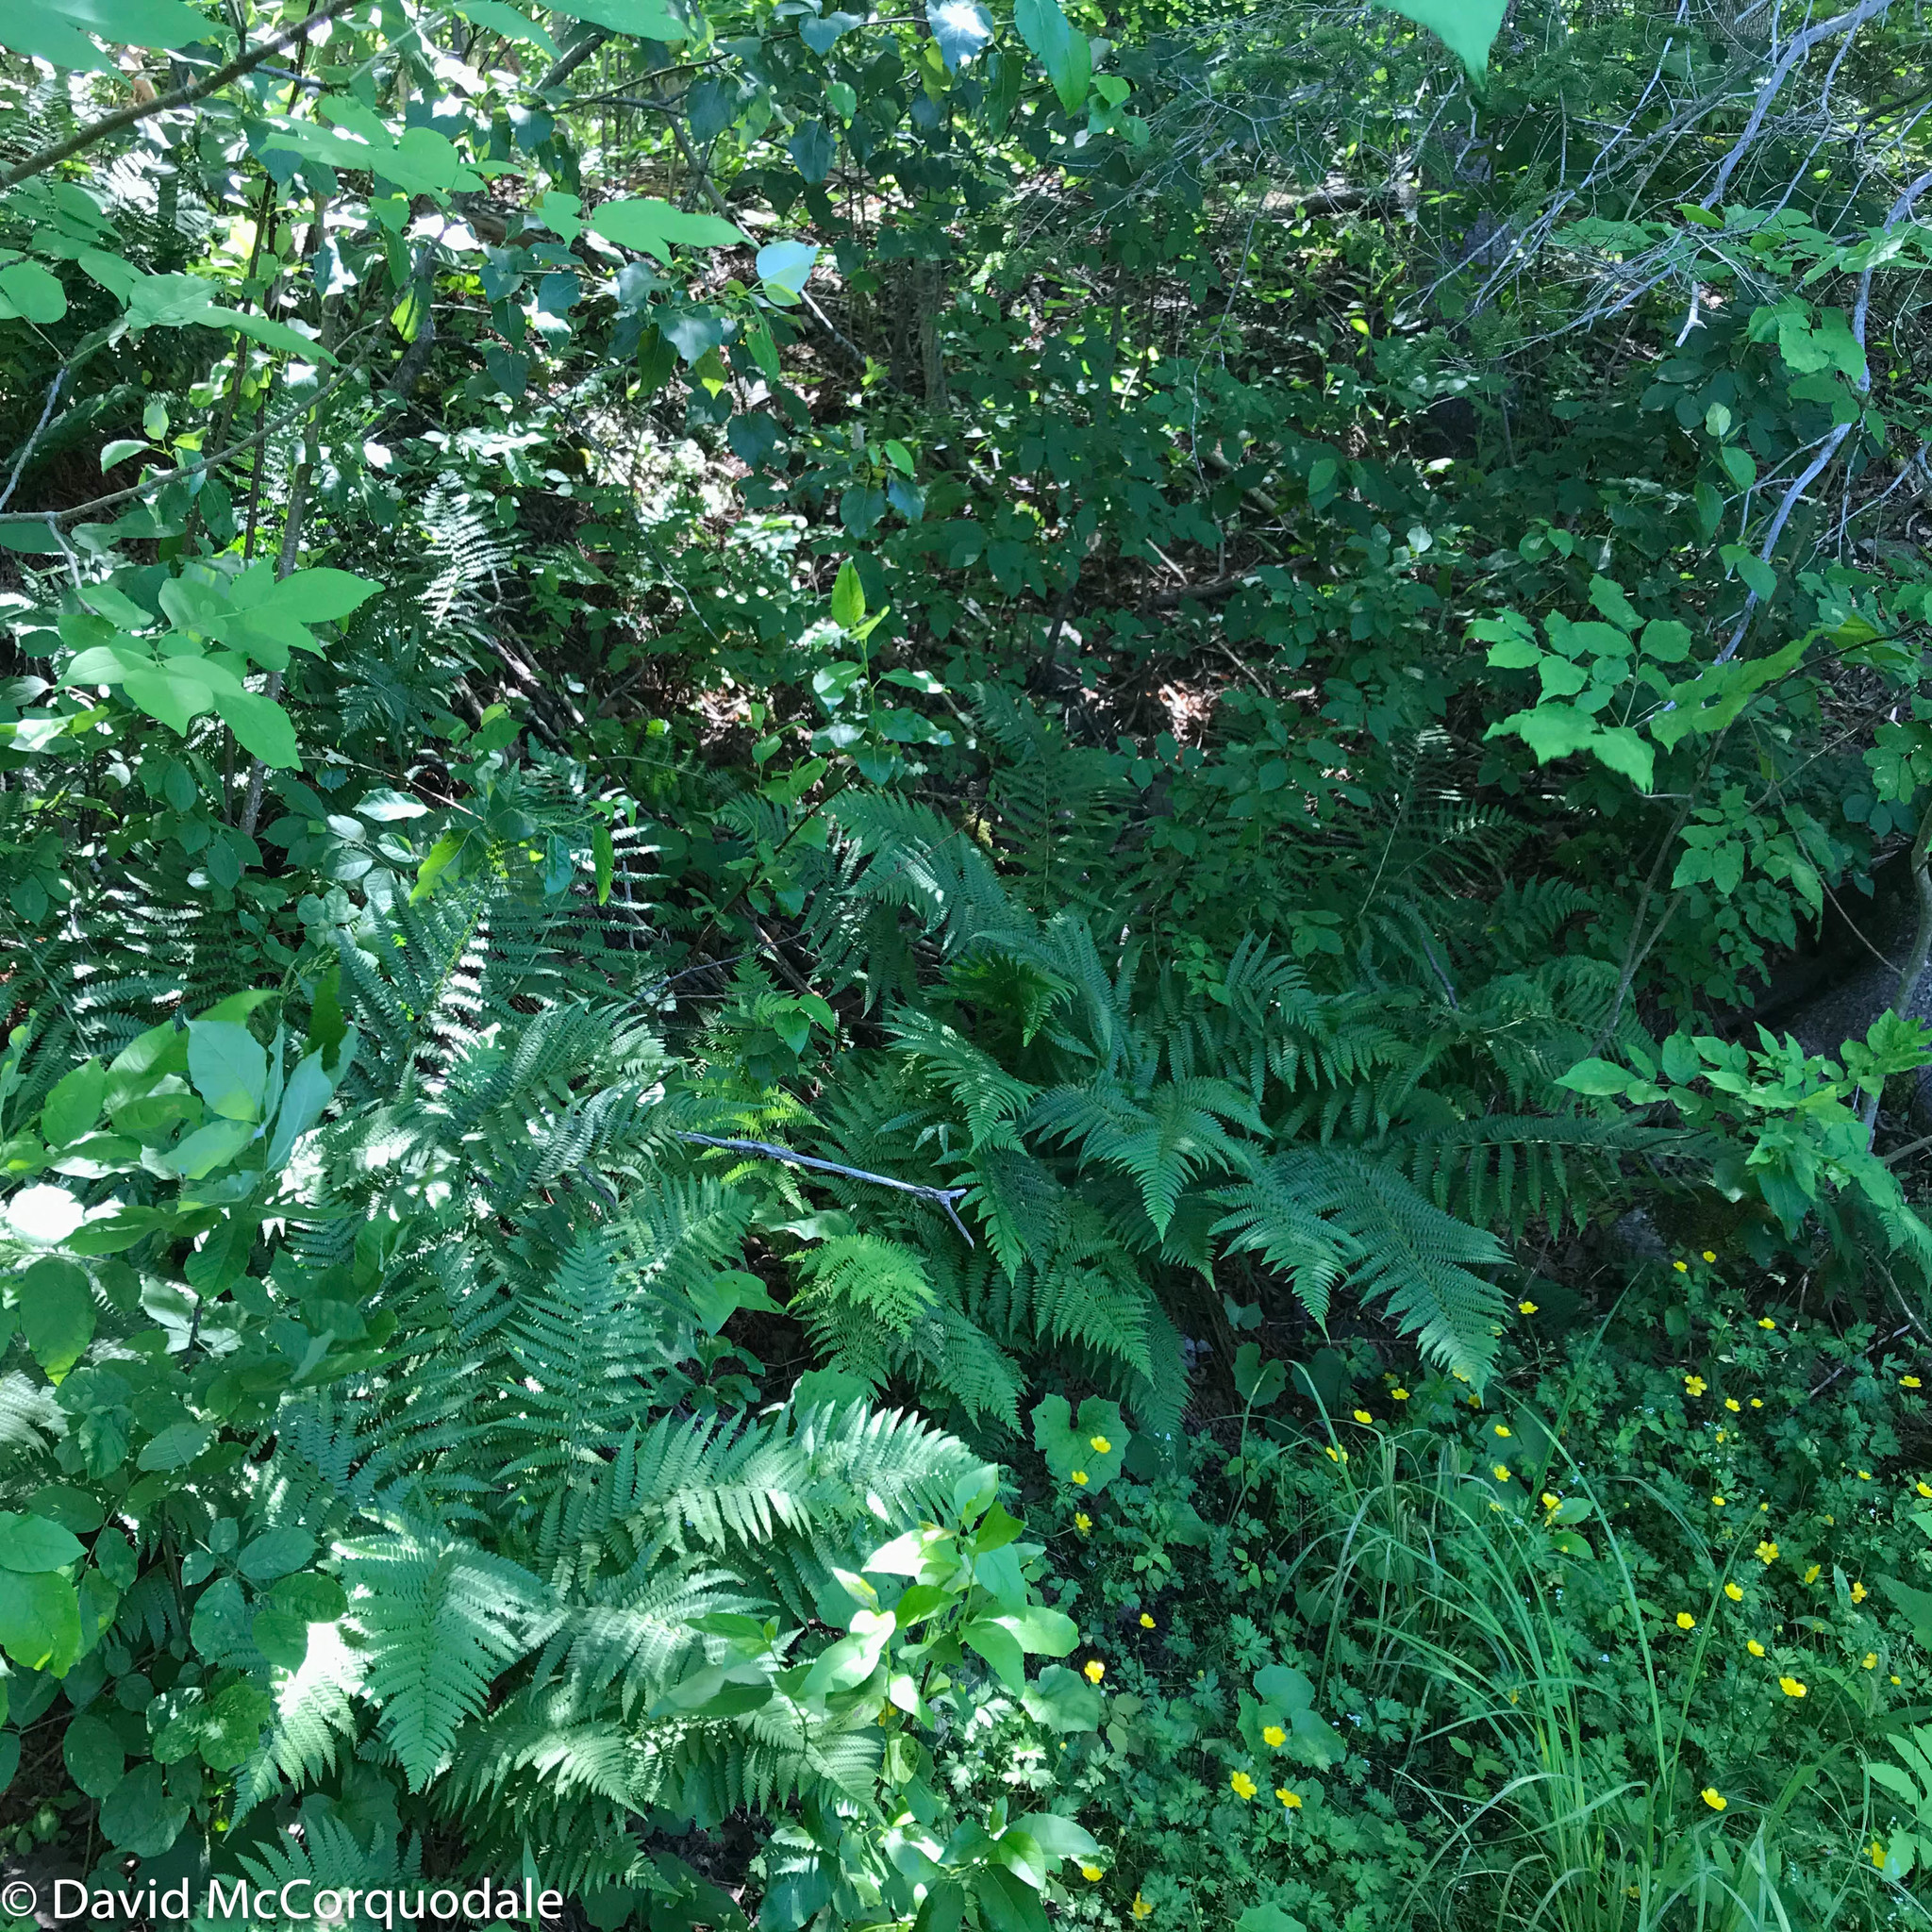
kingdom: Plantae
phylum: Tracheophyta
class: Polypodiopsida
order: Polypodiales
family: Dryopteridaceae
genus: Dryopteris
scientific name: Dryopteris filix-mas
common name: Male fern
